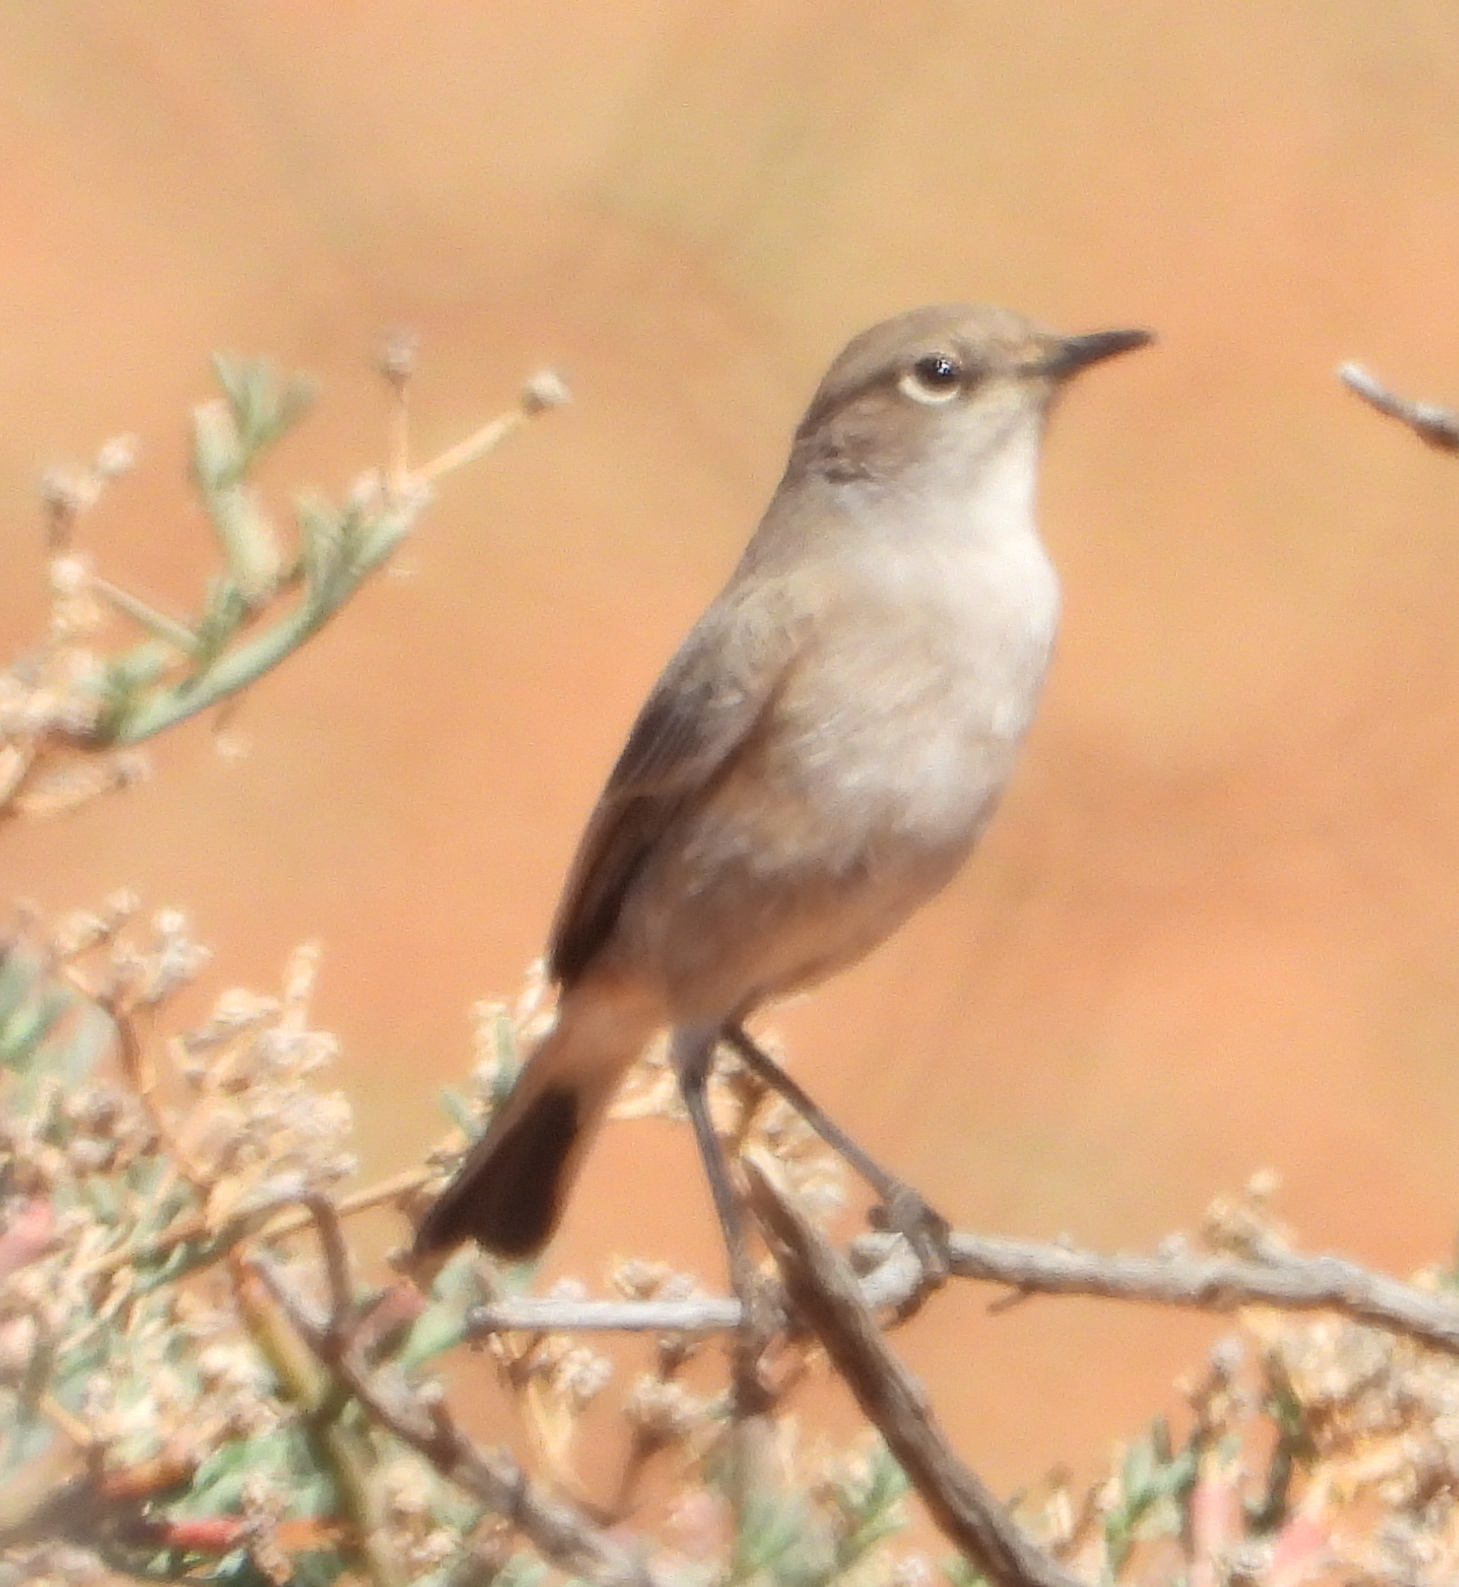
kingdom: Animalia
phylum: Chordata
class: Aves
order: Passeriformes
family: Muscicapidae
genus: Emarginata
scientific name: Emarginata sinuata
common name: Sickle-winged chat
